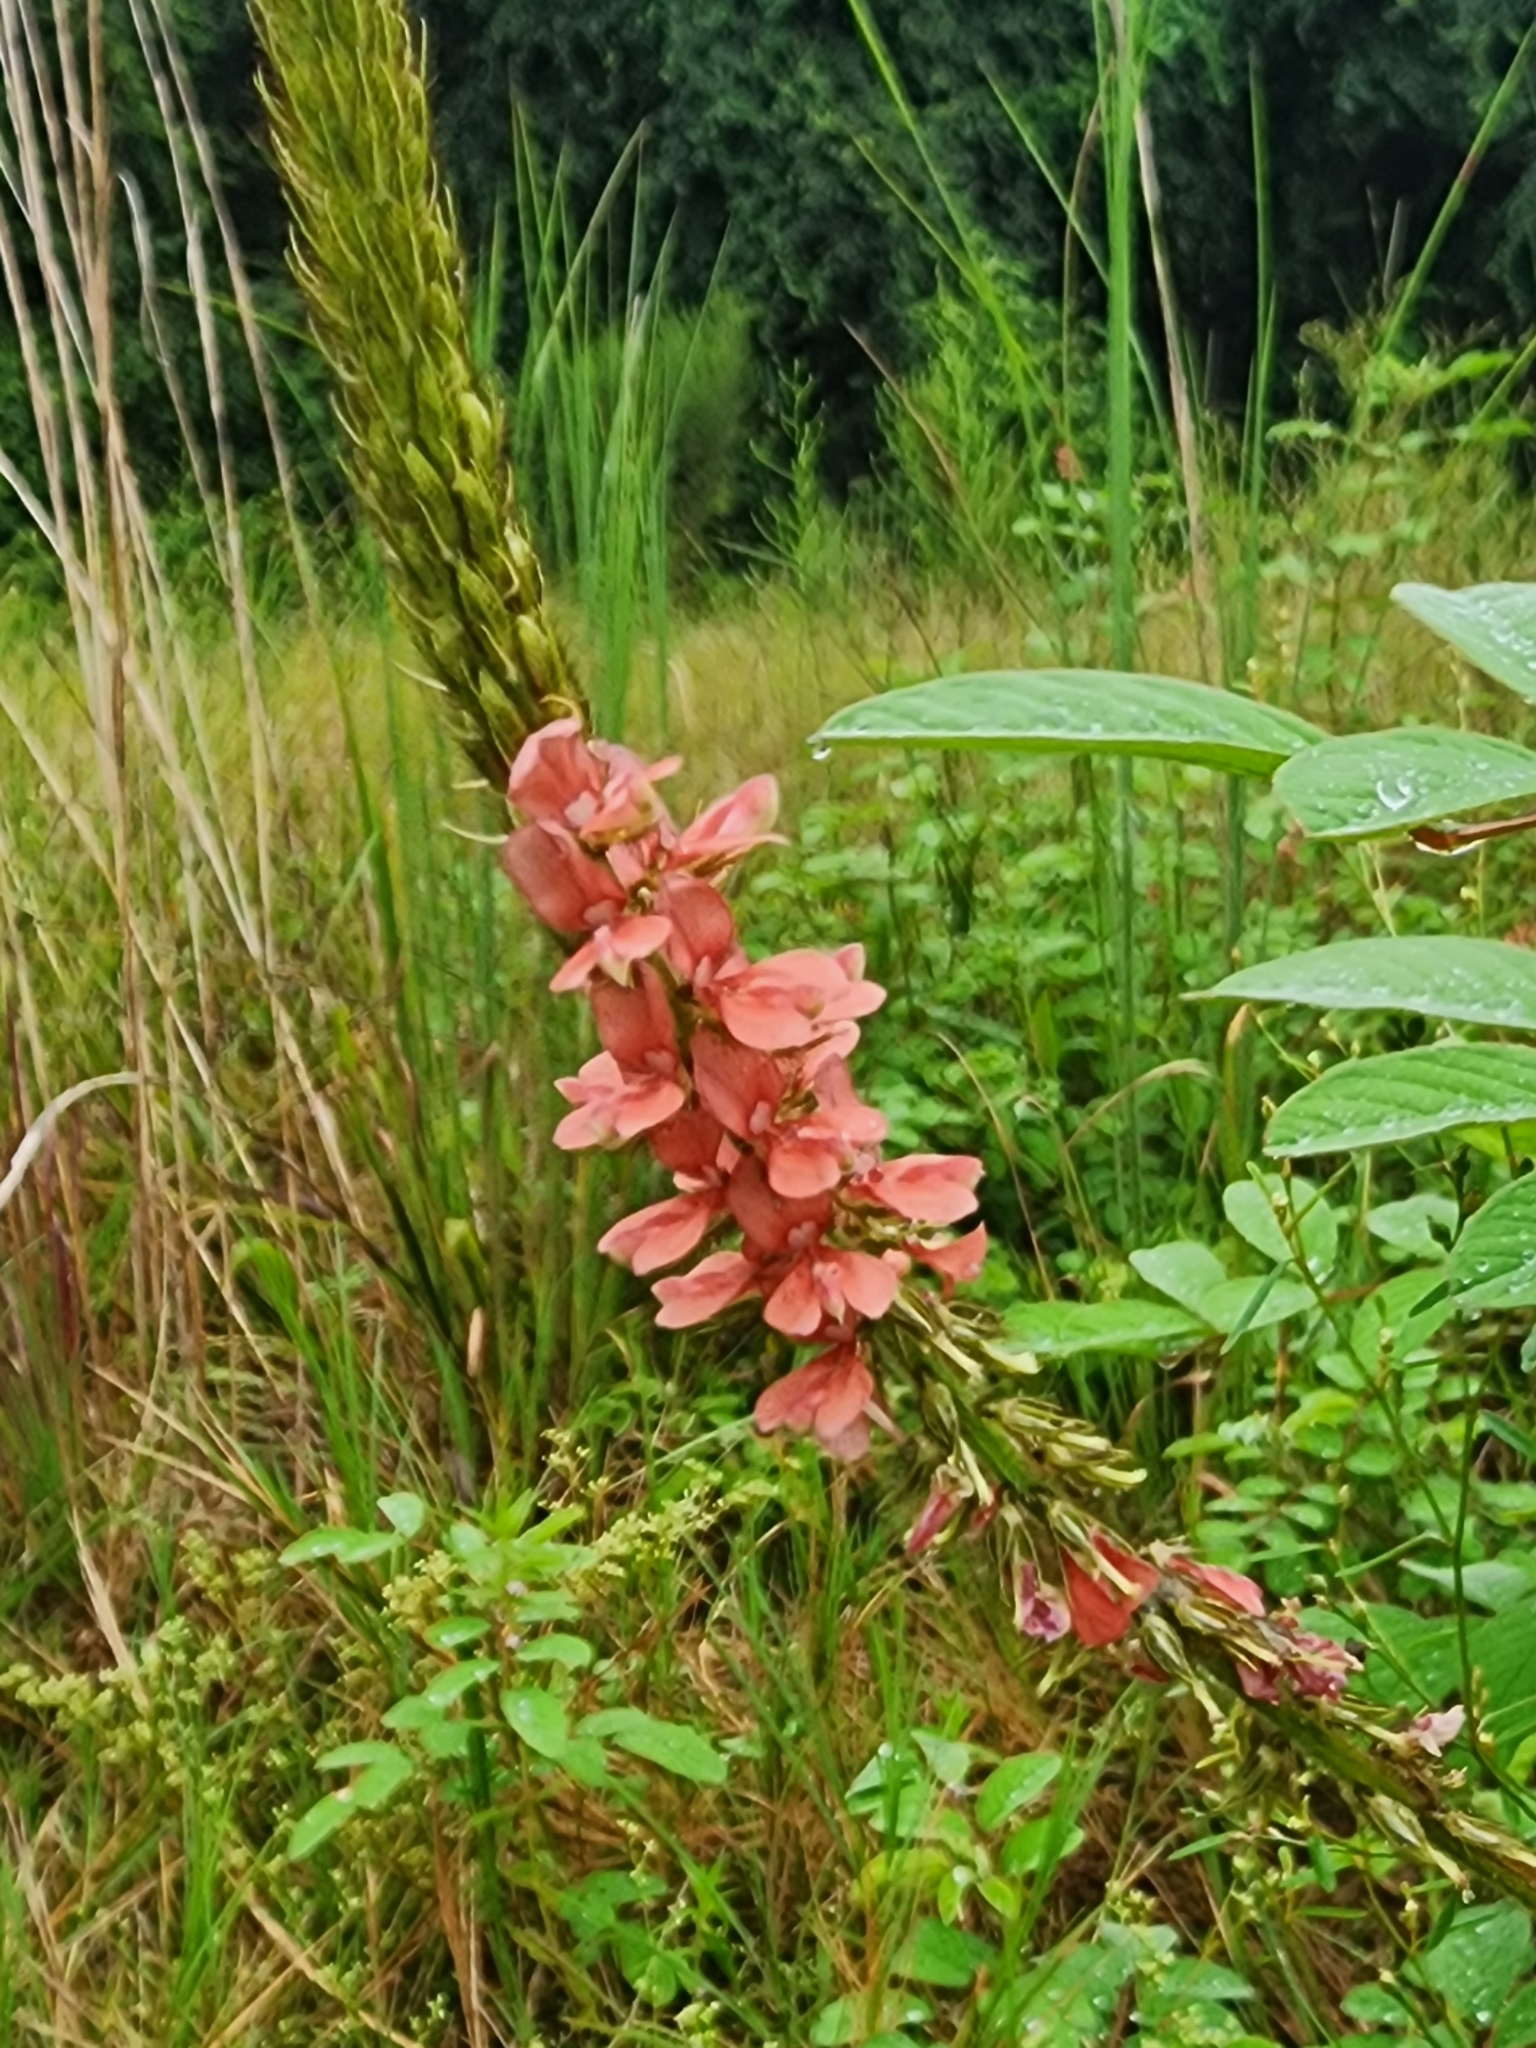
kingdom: Plantae
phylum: Tracheophyta
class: Magnoliopsida
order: Fabales
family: Fabaceae
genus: Indigofera
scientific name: Indigofera hirsuta
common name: Hairy indigo
